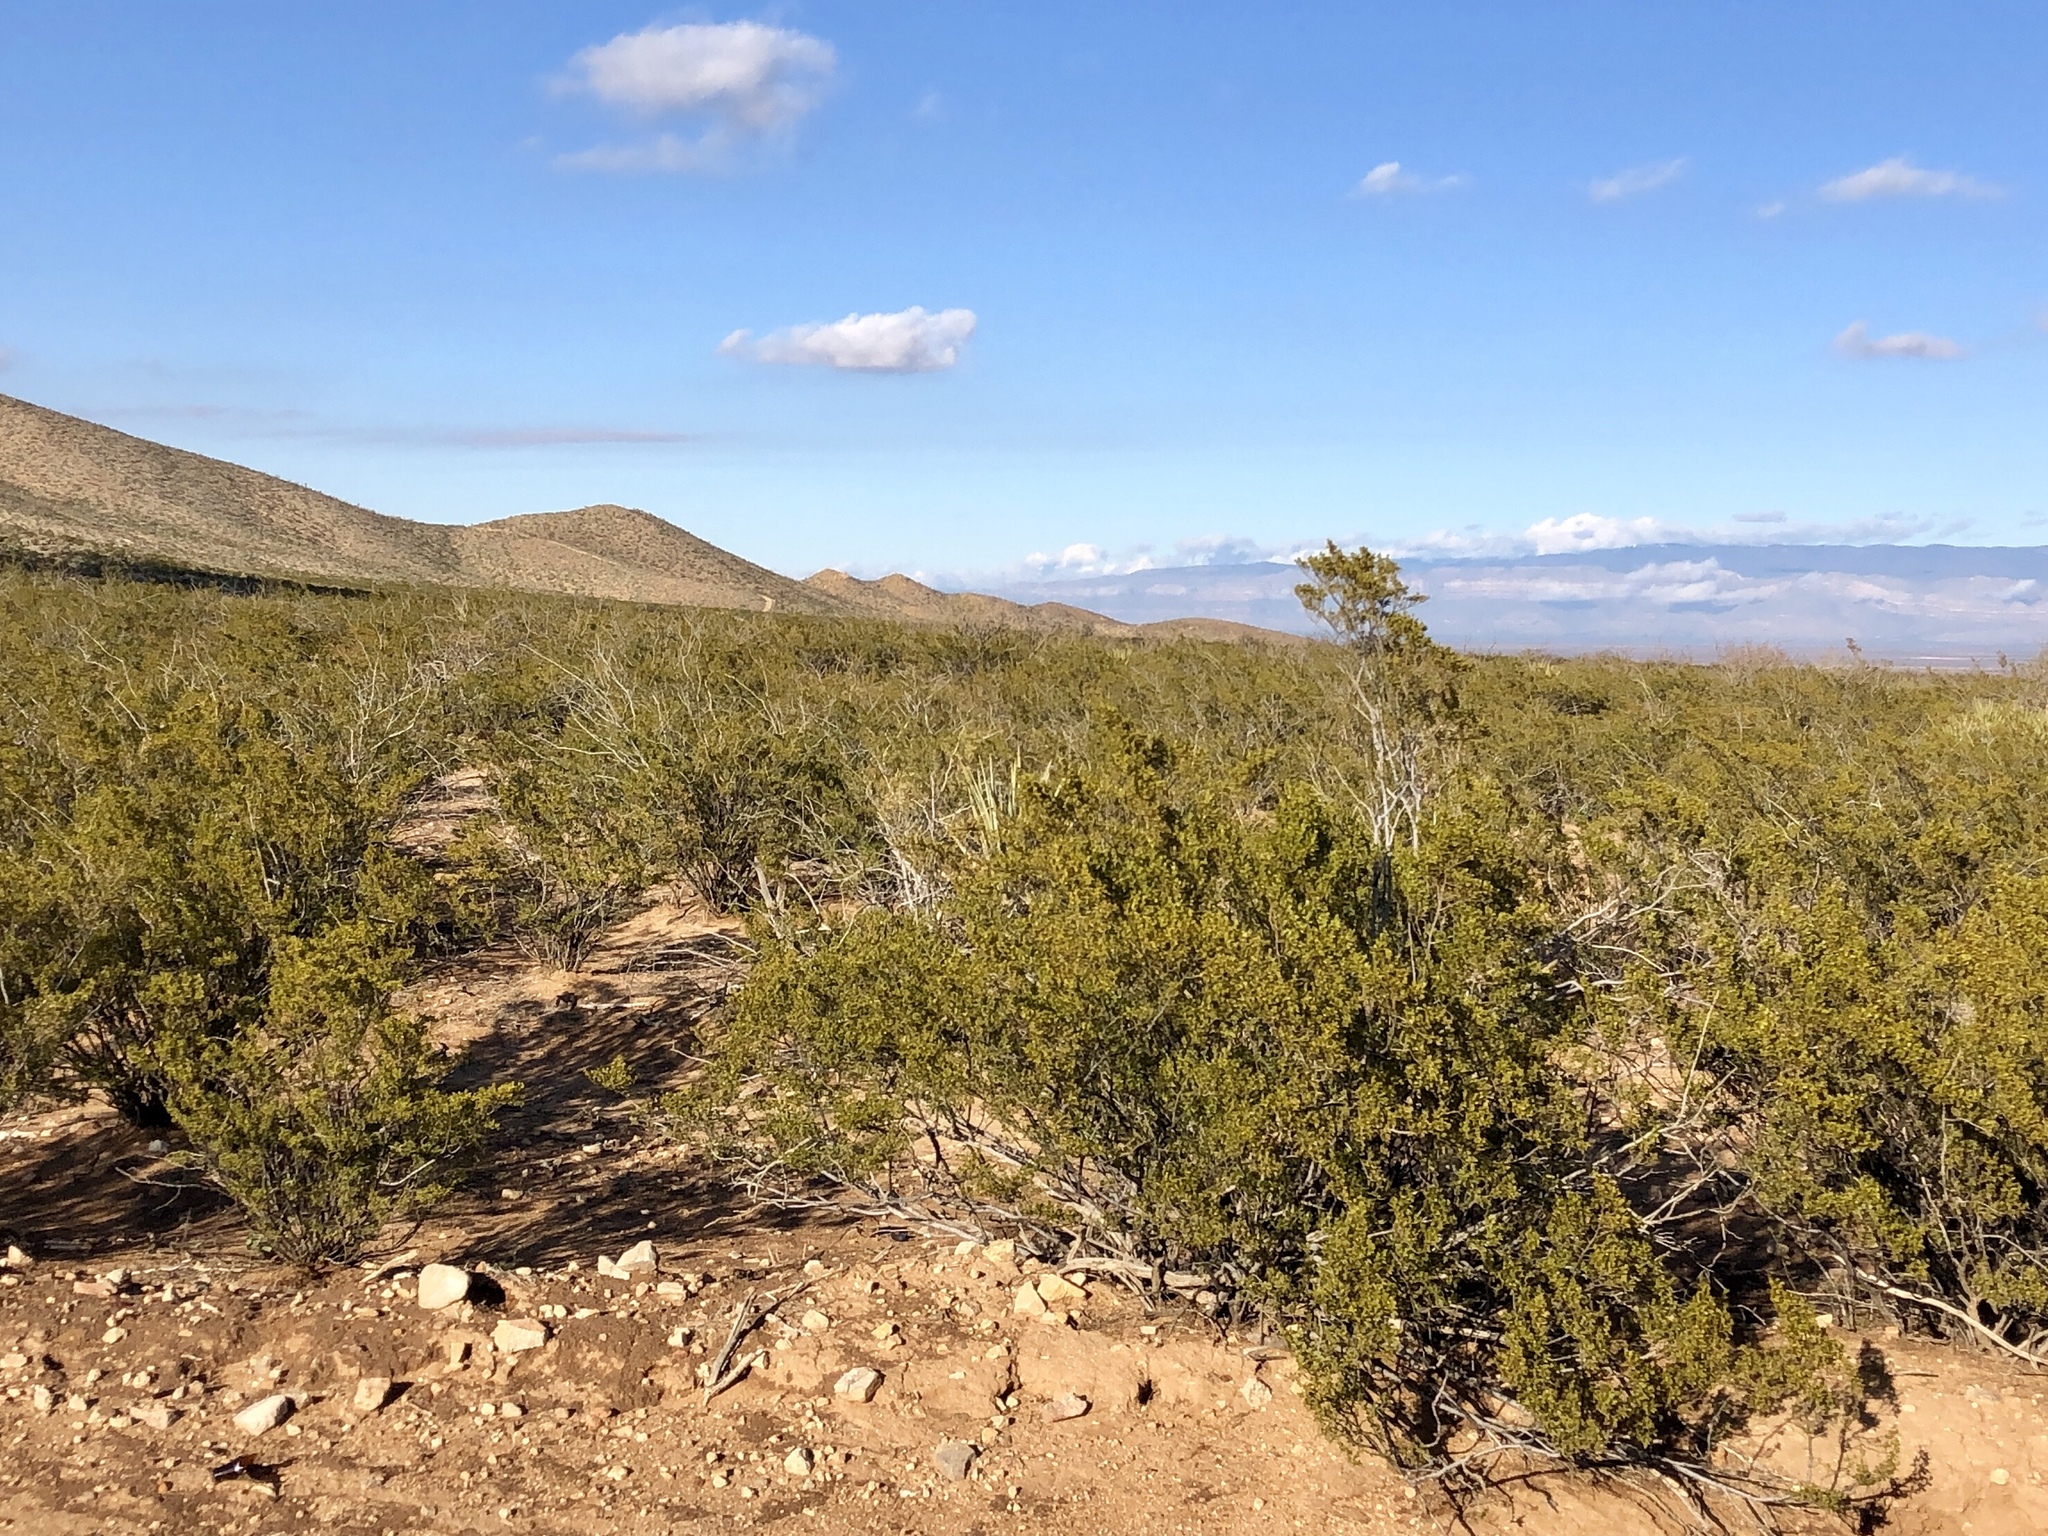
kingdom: Plantae
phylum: Tracheophyta
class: Magnoliopsida
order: Zygophyllales
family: Zygophyllaceae
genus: Larrea
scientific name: Larrea tridentata
